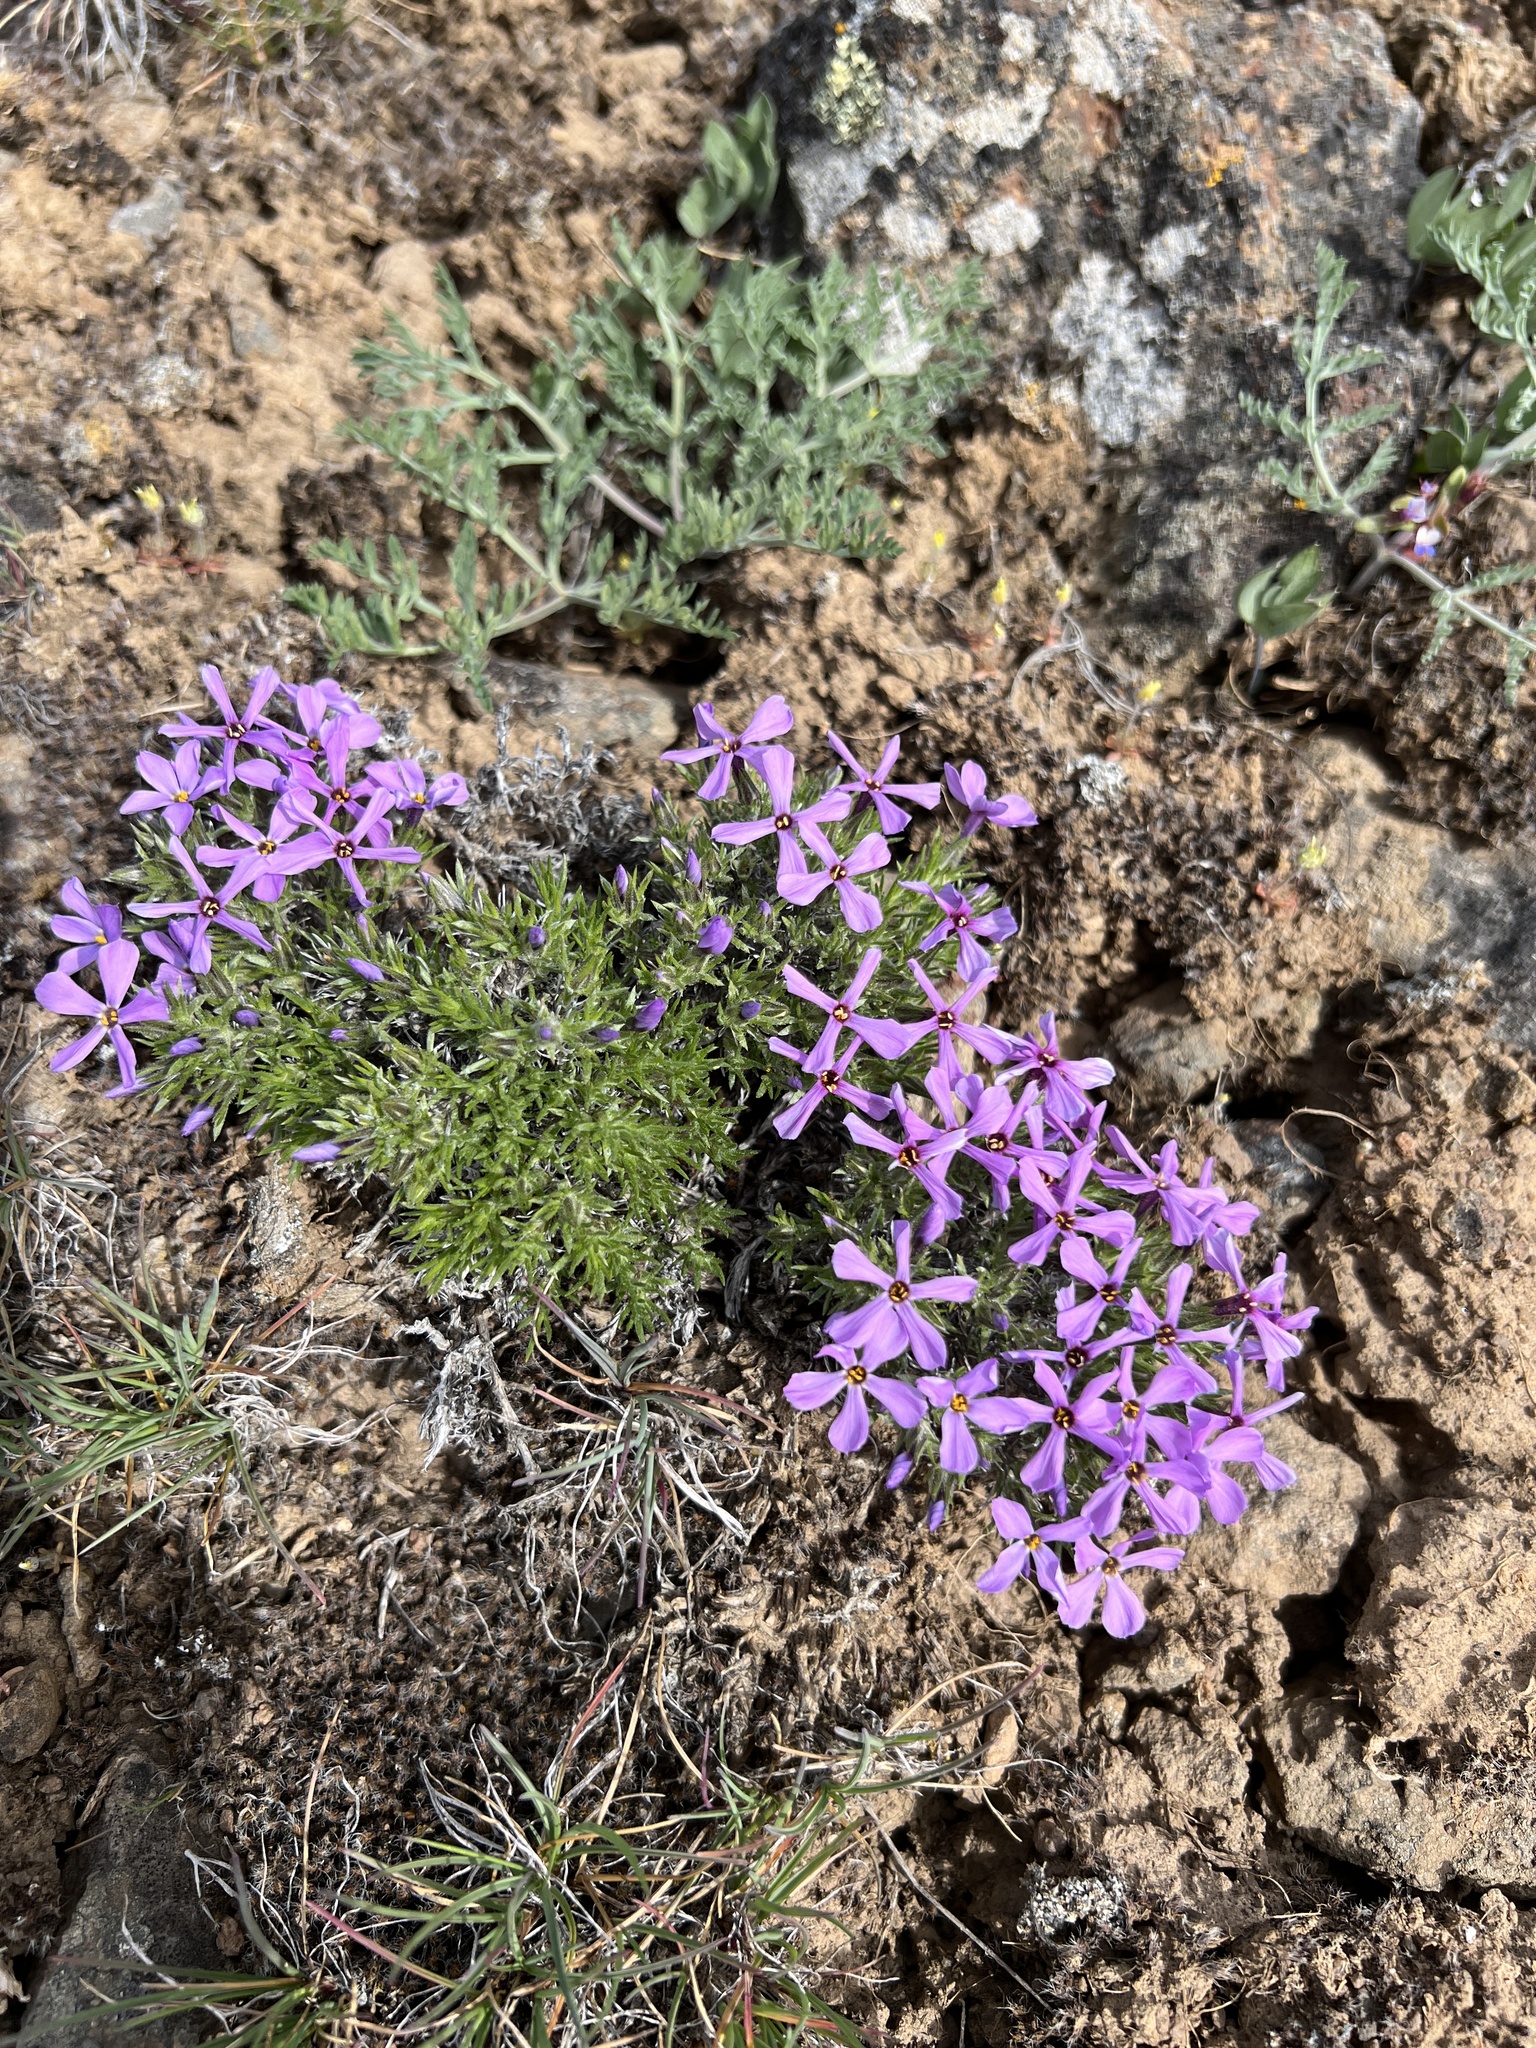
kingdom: Plantae
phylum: Tracheophyta
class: Magnoliopsida
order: Ericales
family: Polemoniaceae
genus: Phlox
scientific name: Phlox douglasii
